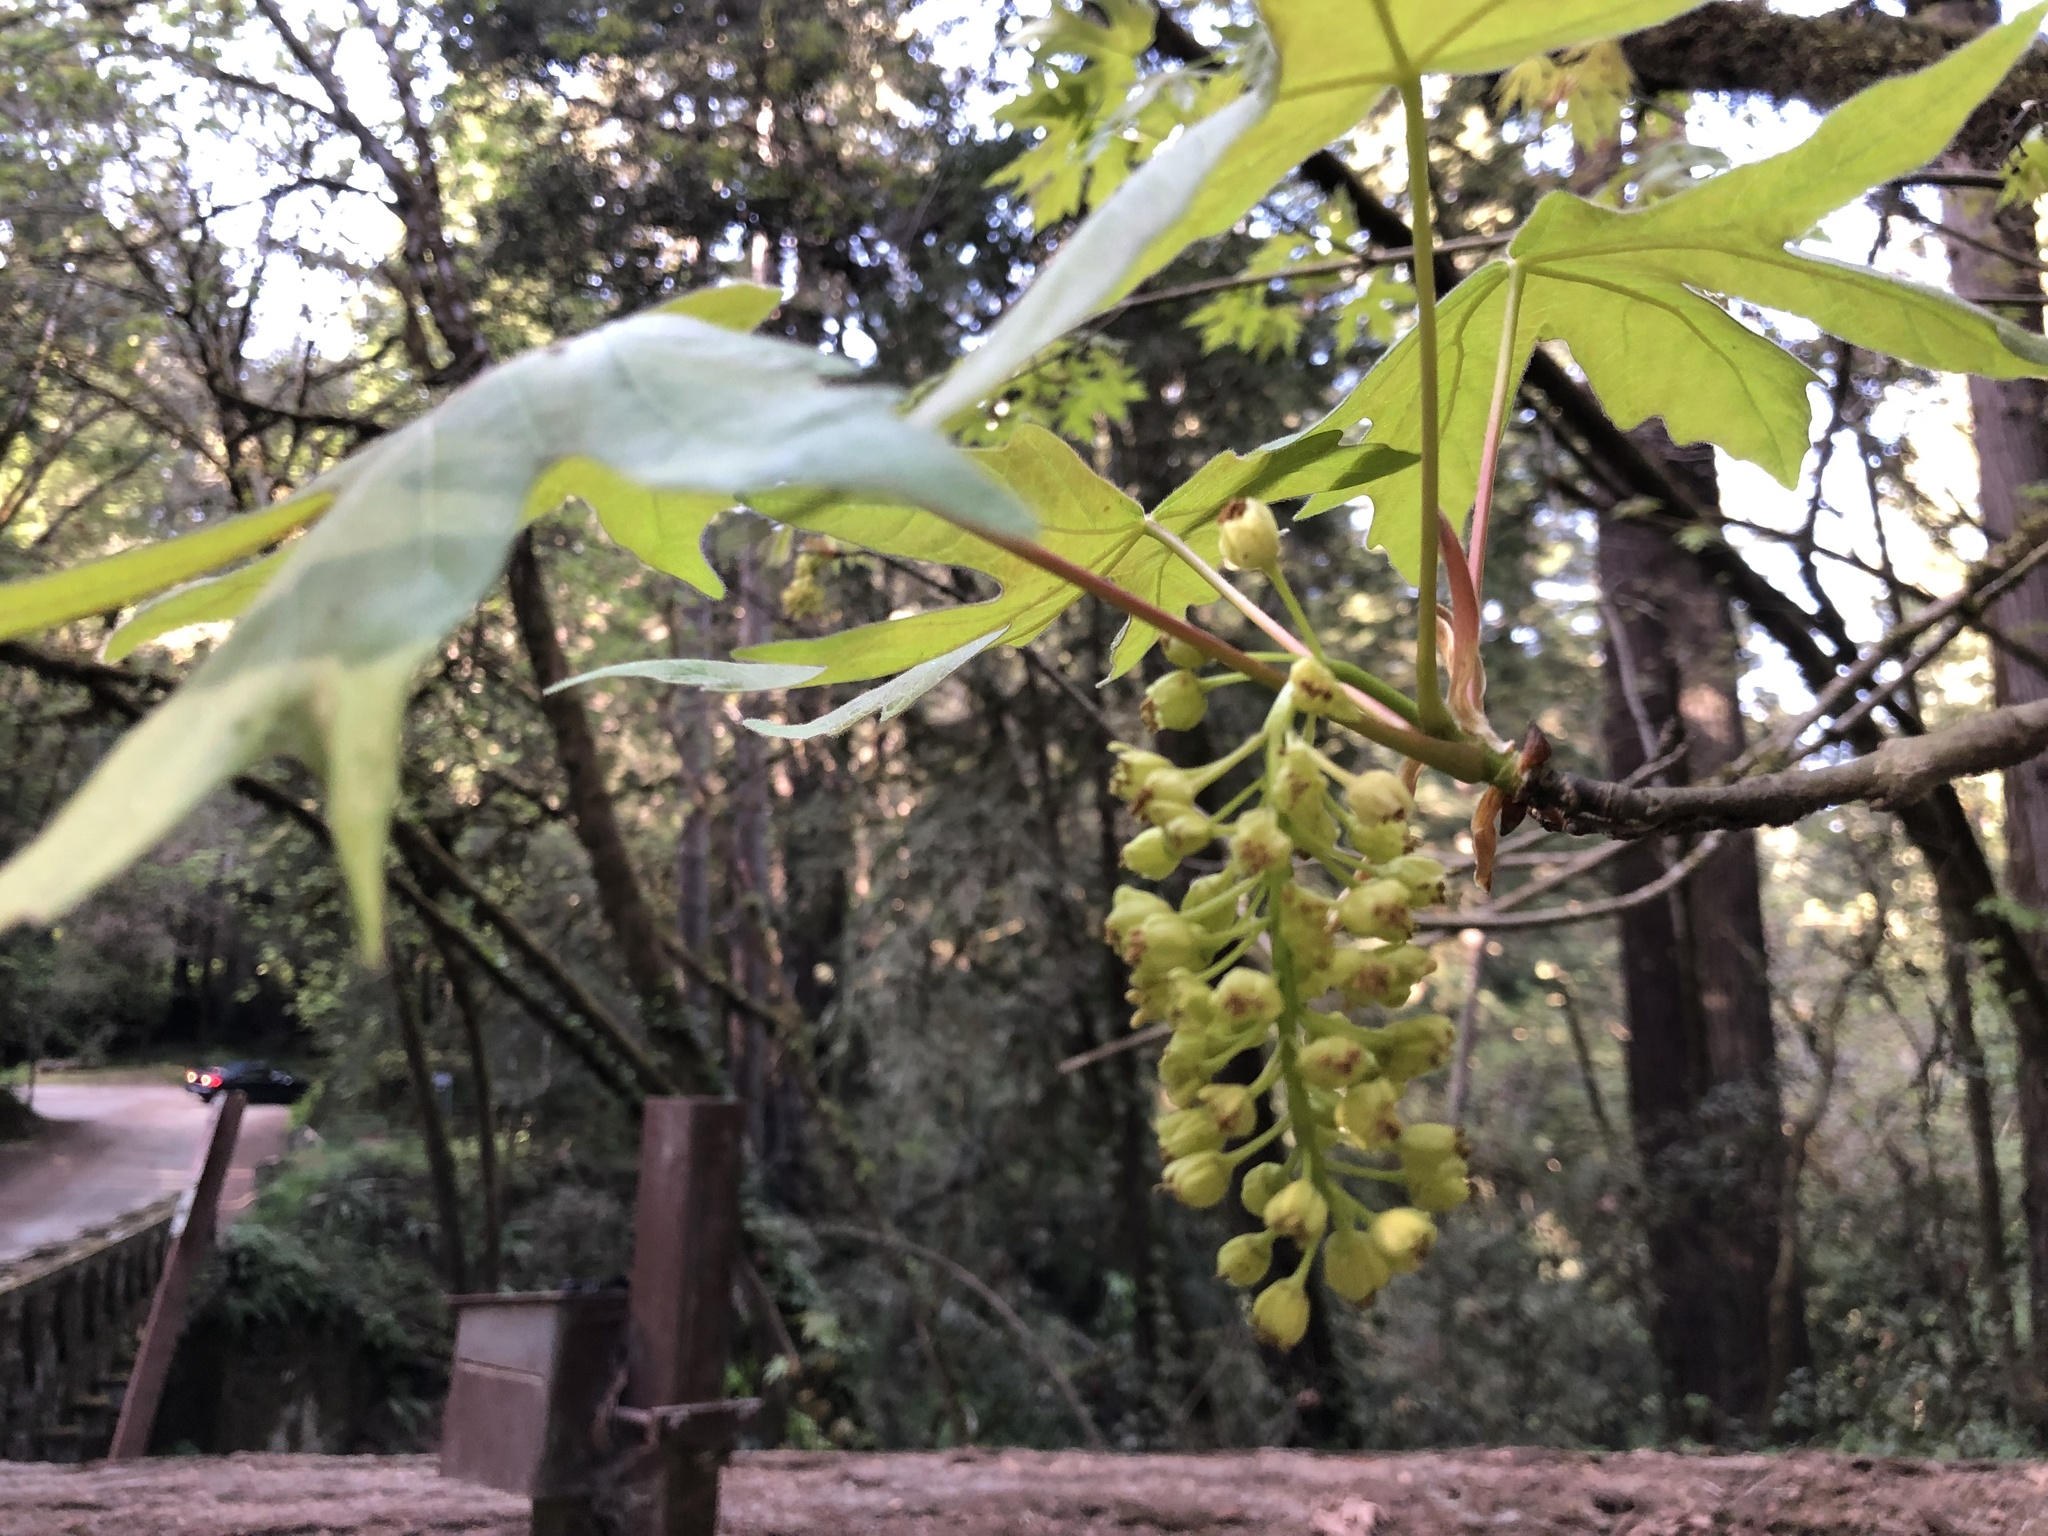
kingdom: Plantae
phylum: Tracheophyta
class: Magnoliopsida
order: Sapindales
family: Sapindaceae
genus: Acer
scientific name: Acer macrophyllum
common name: Oregon maple
